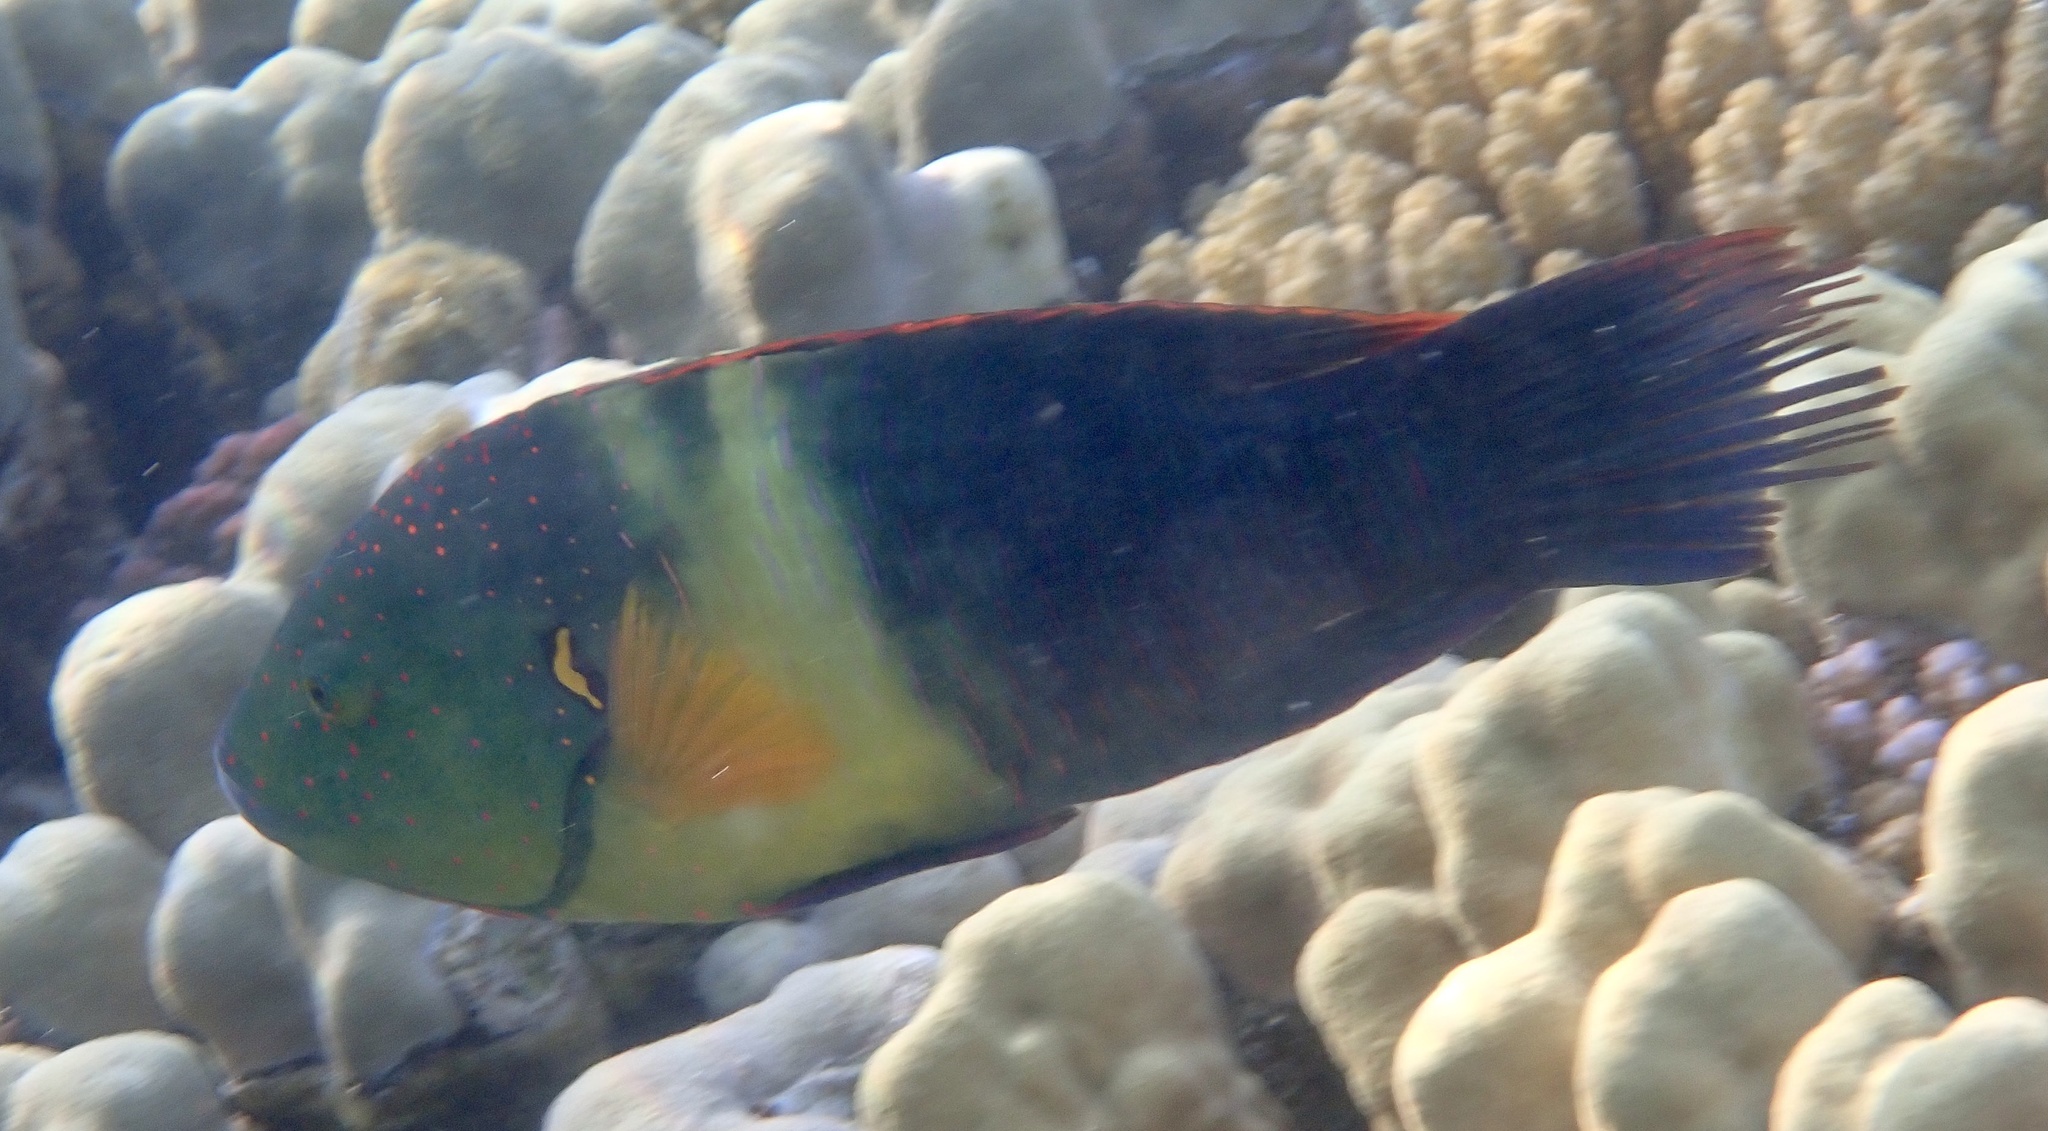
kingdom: Animalia
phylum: Chordata
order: Perciformes
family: Labridae
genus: Cheilinus
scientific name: Cheilinus lunulatus
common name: Broomtail wrasse
